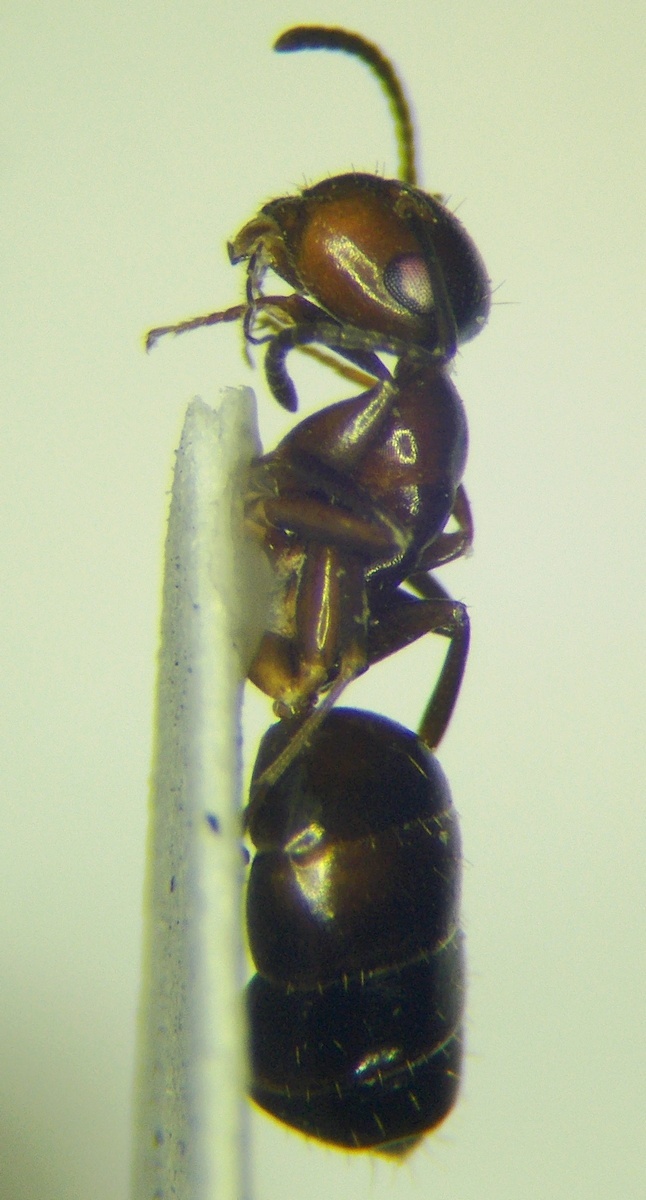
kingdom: Animalia
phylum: Arthropoda
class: Insecta
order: Hymenoptera
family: Formicidae
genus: Camponotus
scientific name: Camponotus truncatus
